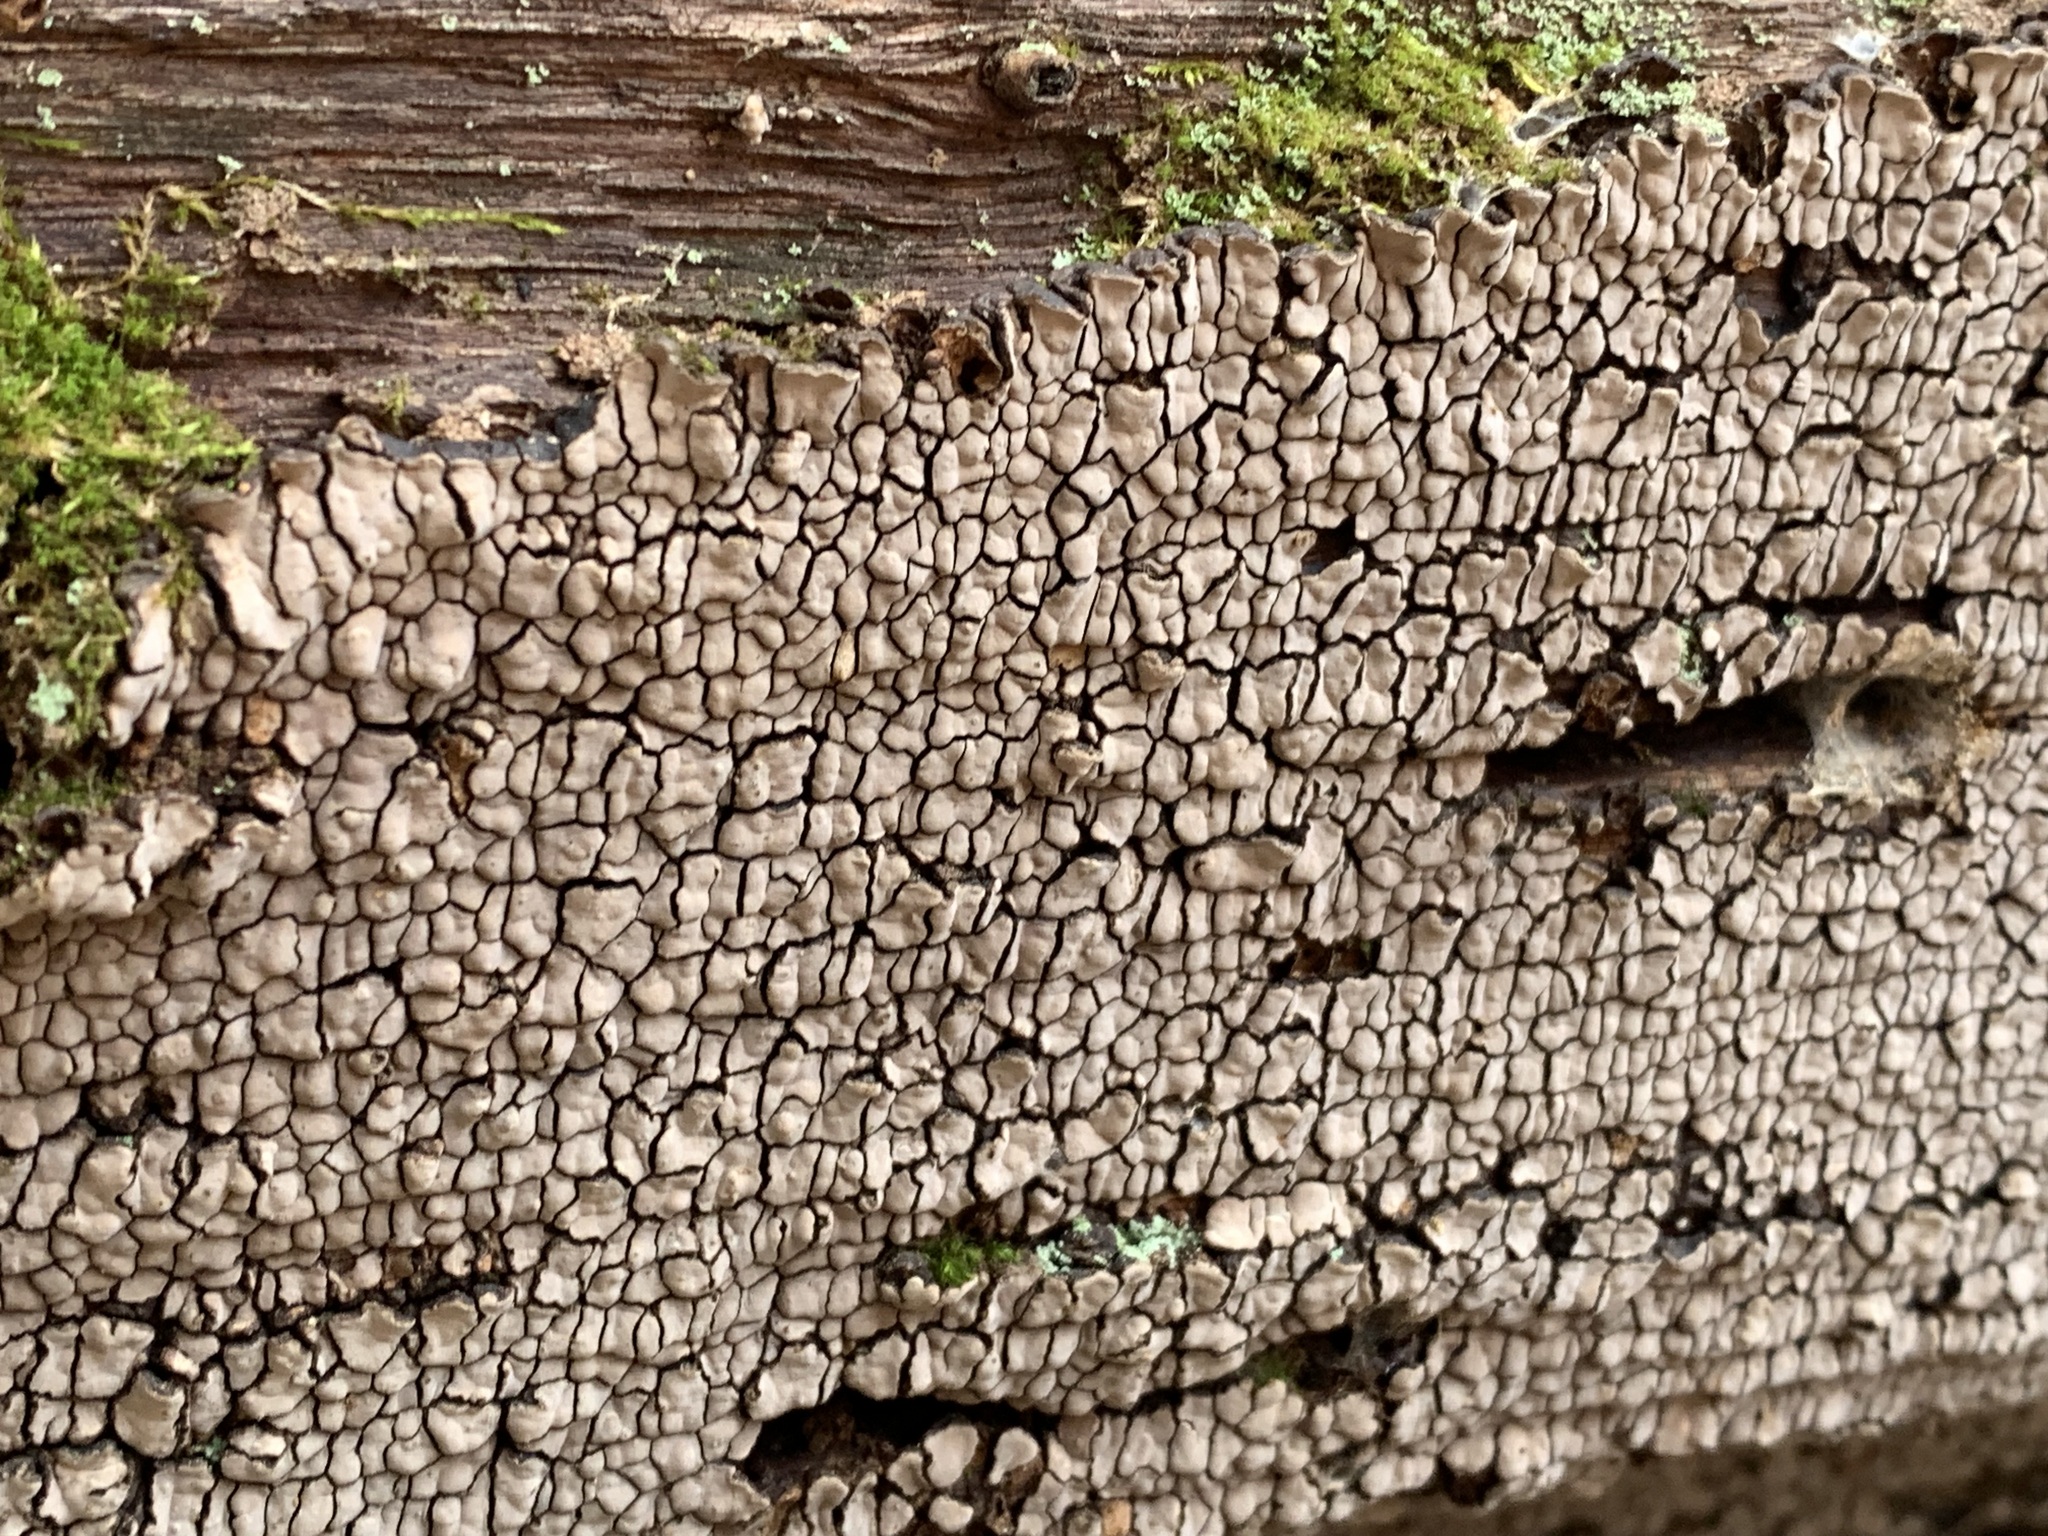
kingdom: Fungi
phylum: Basidiomycota
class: Agaricomycetes
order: Russulales
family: Stereaceae
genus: Xylobolus
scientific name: Xylobolus frustulatus
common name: Ceramic parchment
